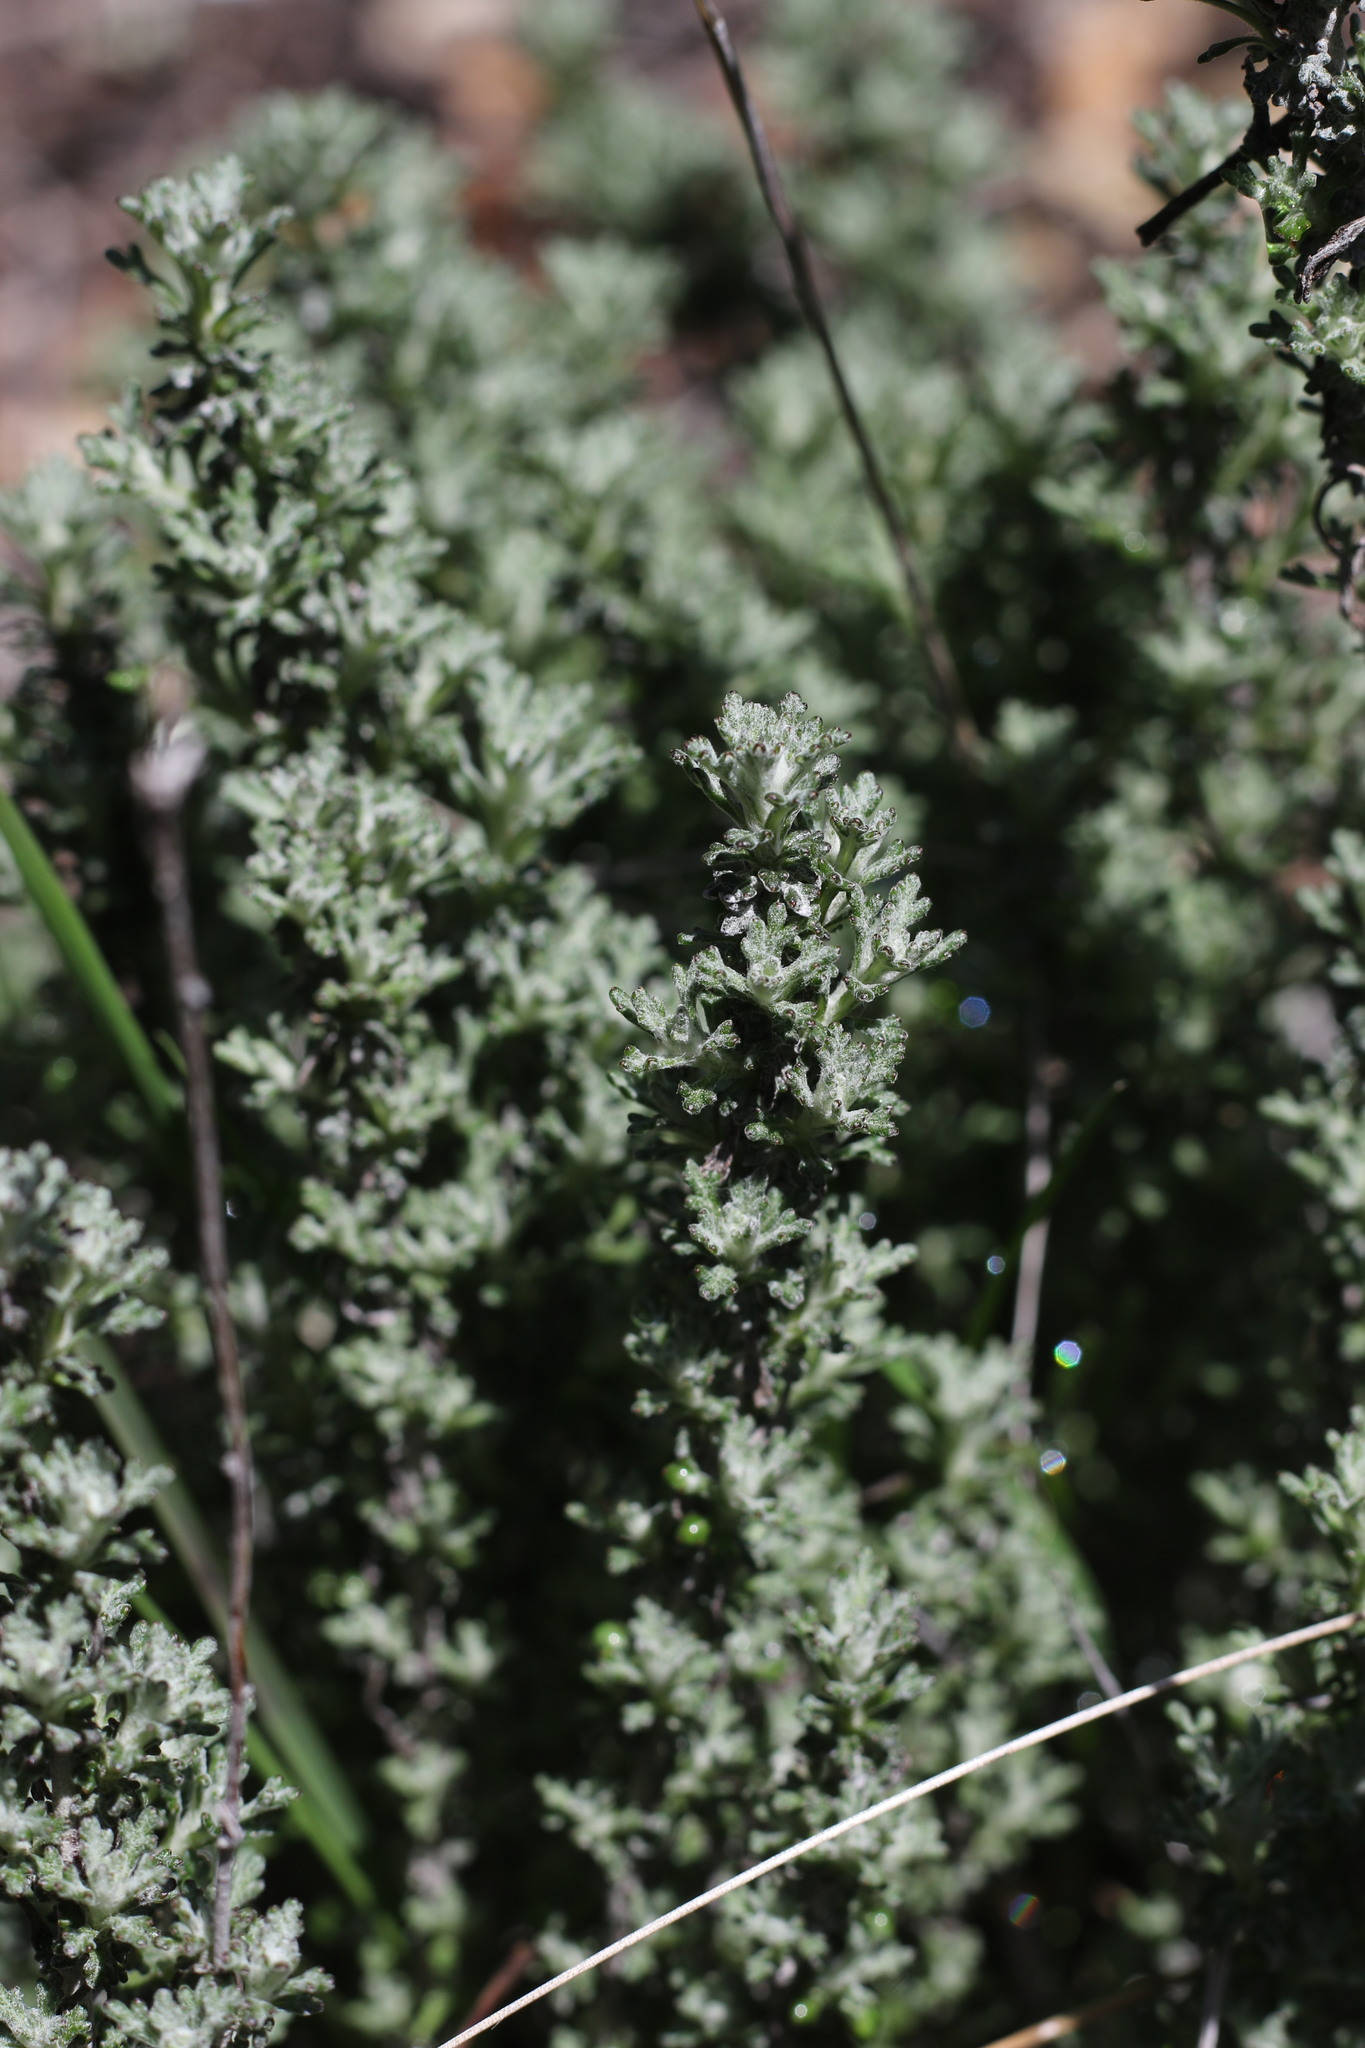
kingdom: Plantae
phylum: Tracheophyta
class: Magnoliopsida
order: Asterales
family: Asteraceae
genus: Eriophyllum
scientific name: Eriophyllum confertiflorum
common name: Golden-yarrow
